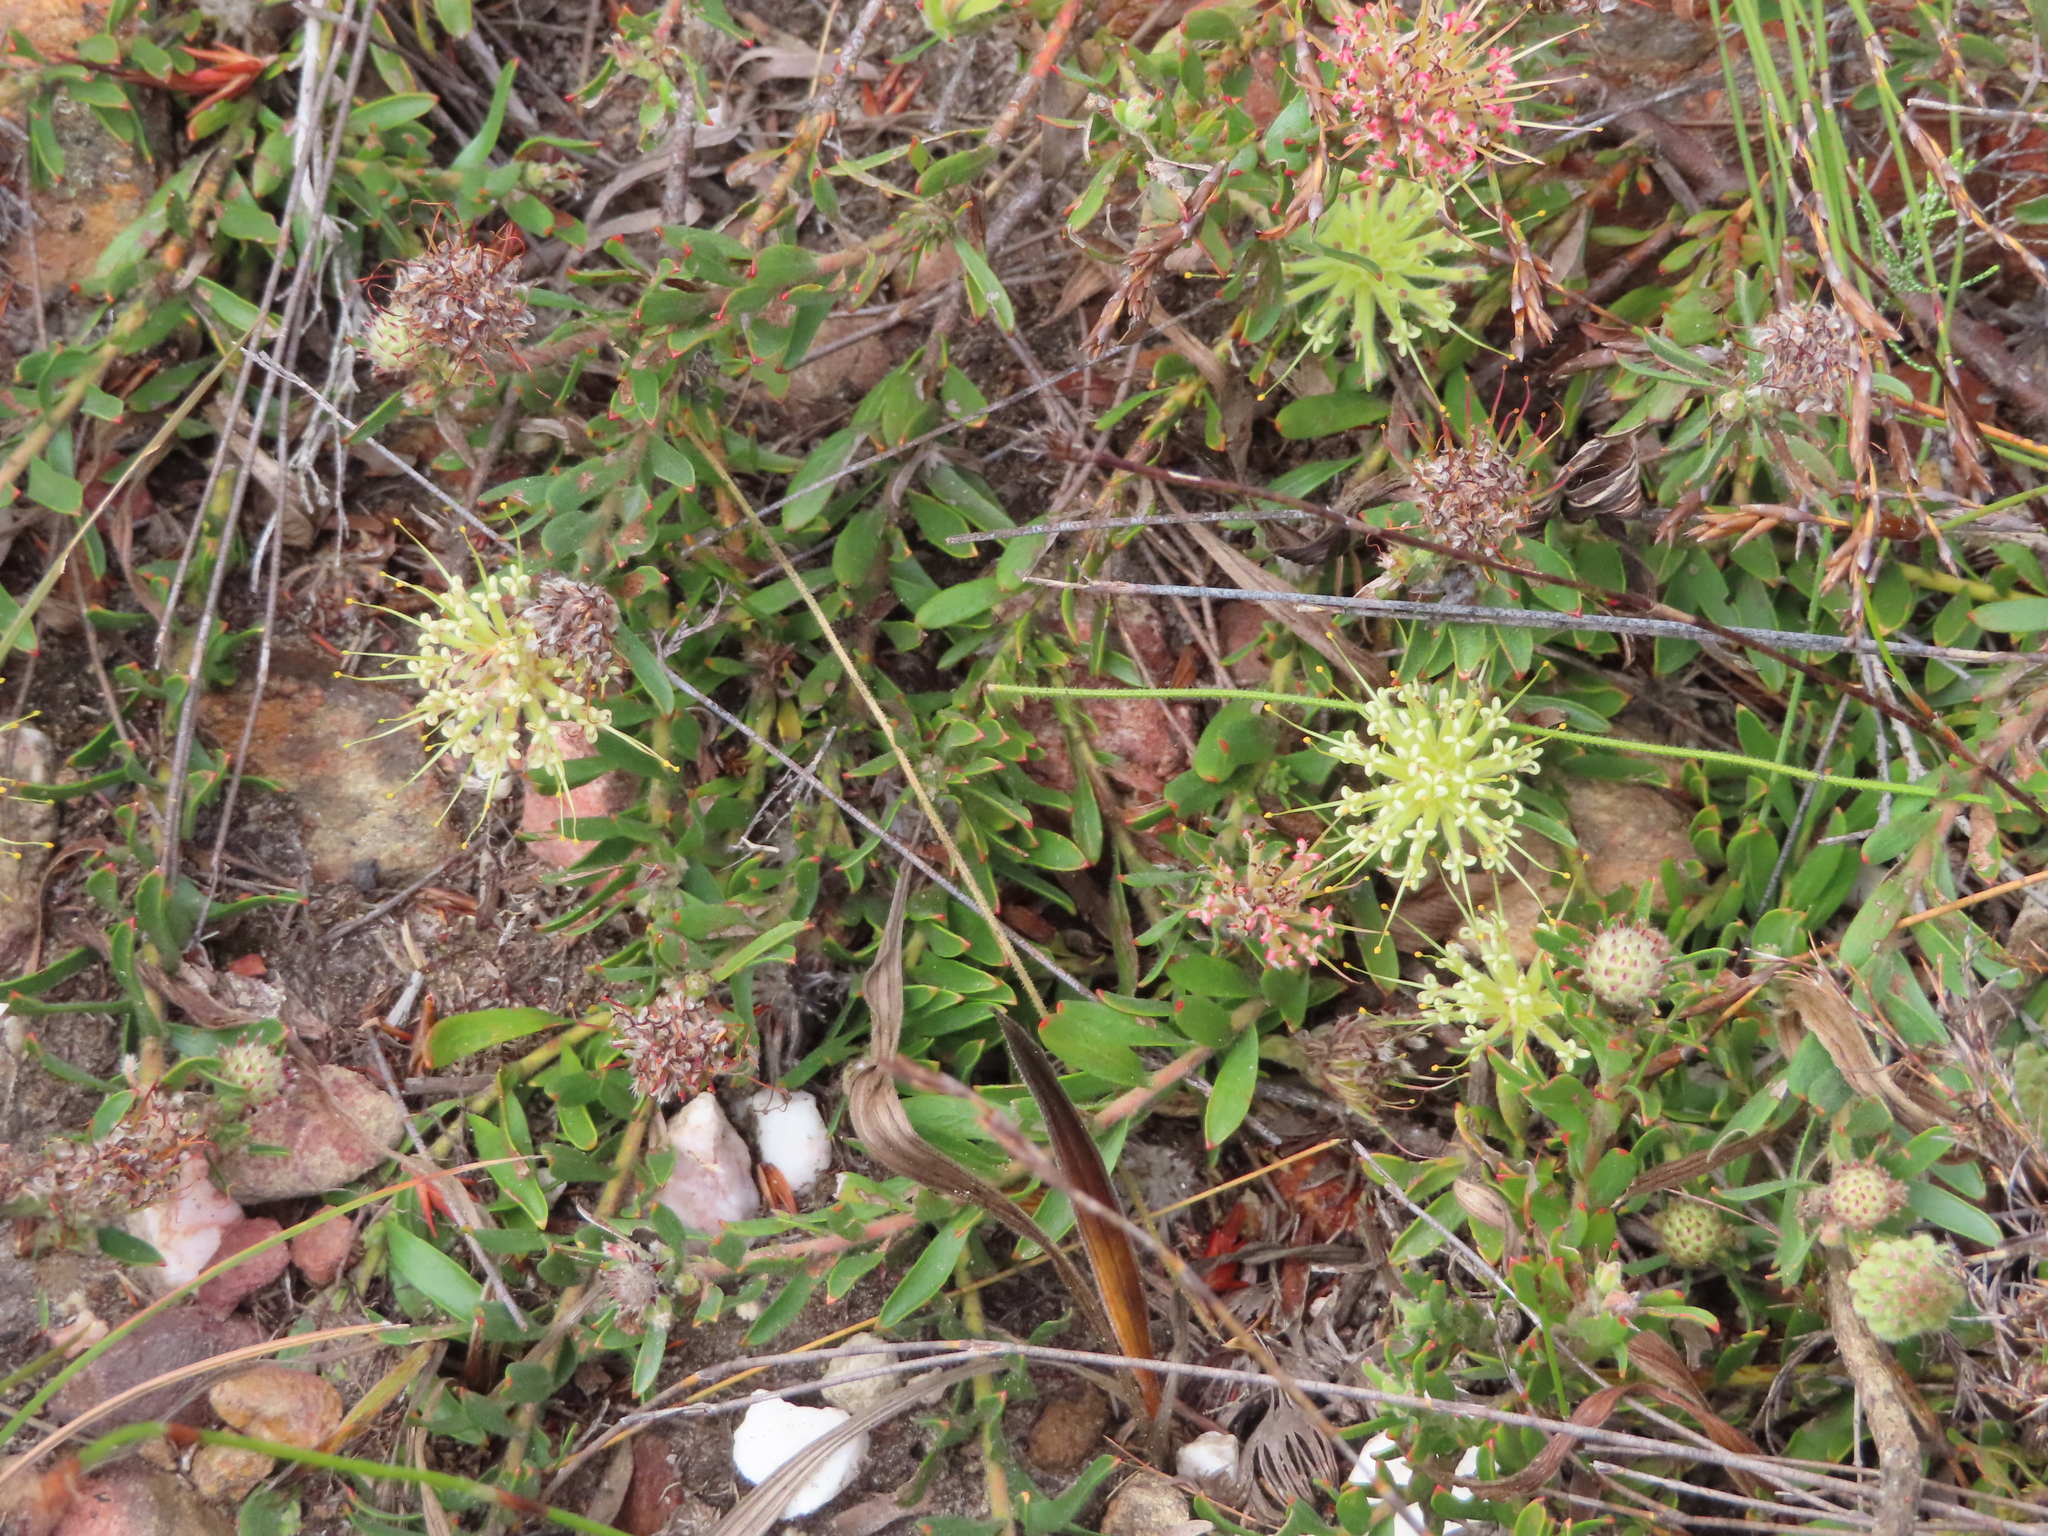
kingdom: Plantae
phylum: Tracheophyta
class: Magnoliopsida
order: Proteales
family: Proteaceae
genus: Leucospermum
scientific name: Leucospermum heterophyllum
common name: Trident pincushion
